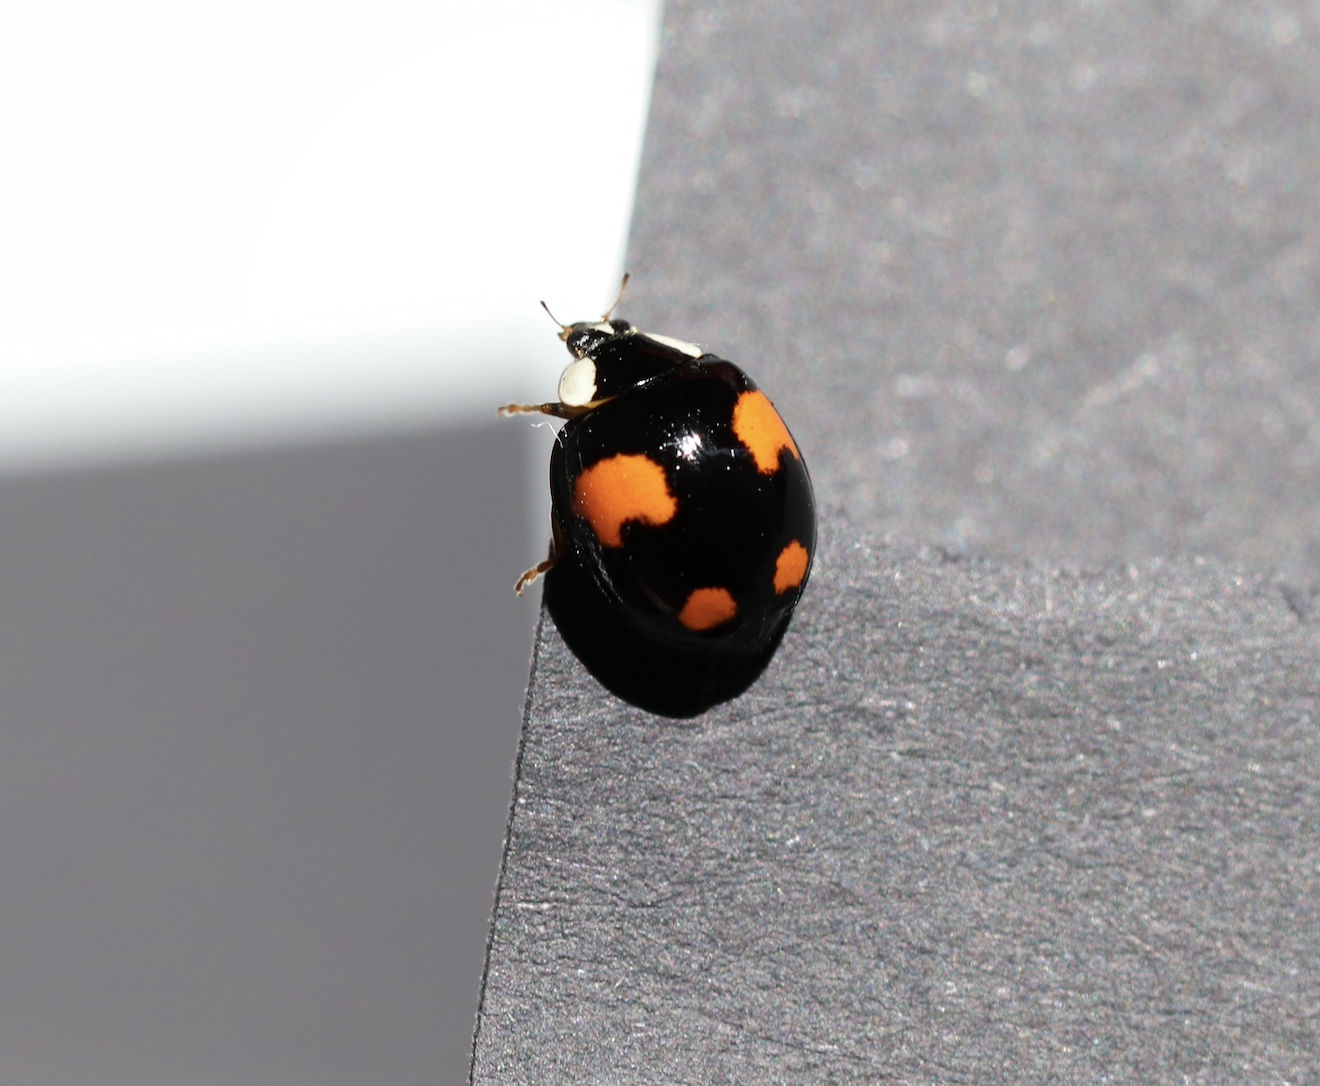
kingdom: Animalia
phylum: Arthropoda
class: Insecta
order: Coleoptera
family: Coccinellidae
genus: Harmonia
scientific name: Harmonia axyridis
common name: Harlequin ladybird
